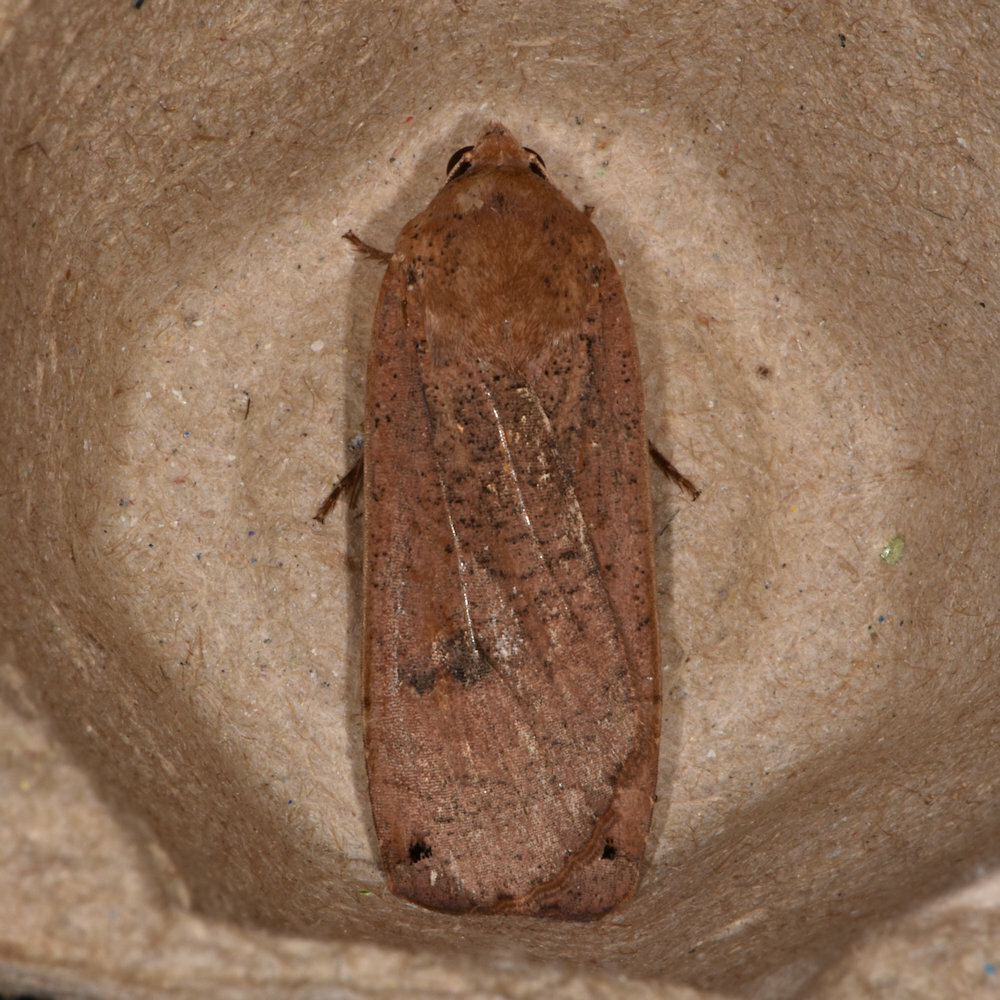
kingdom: Animalia
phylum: Arthropoda
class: Insecta
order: Lepidoptera
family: Noctuidae
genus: Noctua
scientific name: Noctua pronuba
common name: Large yellow underwing
